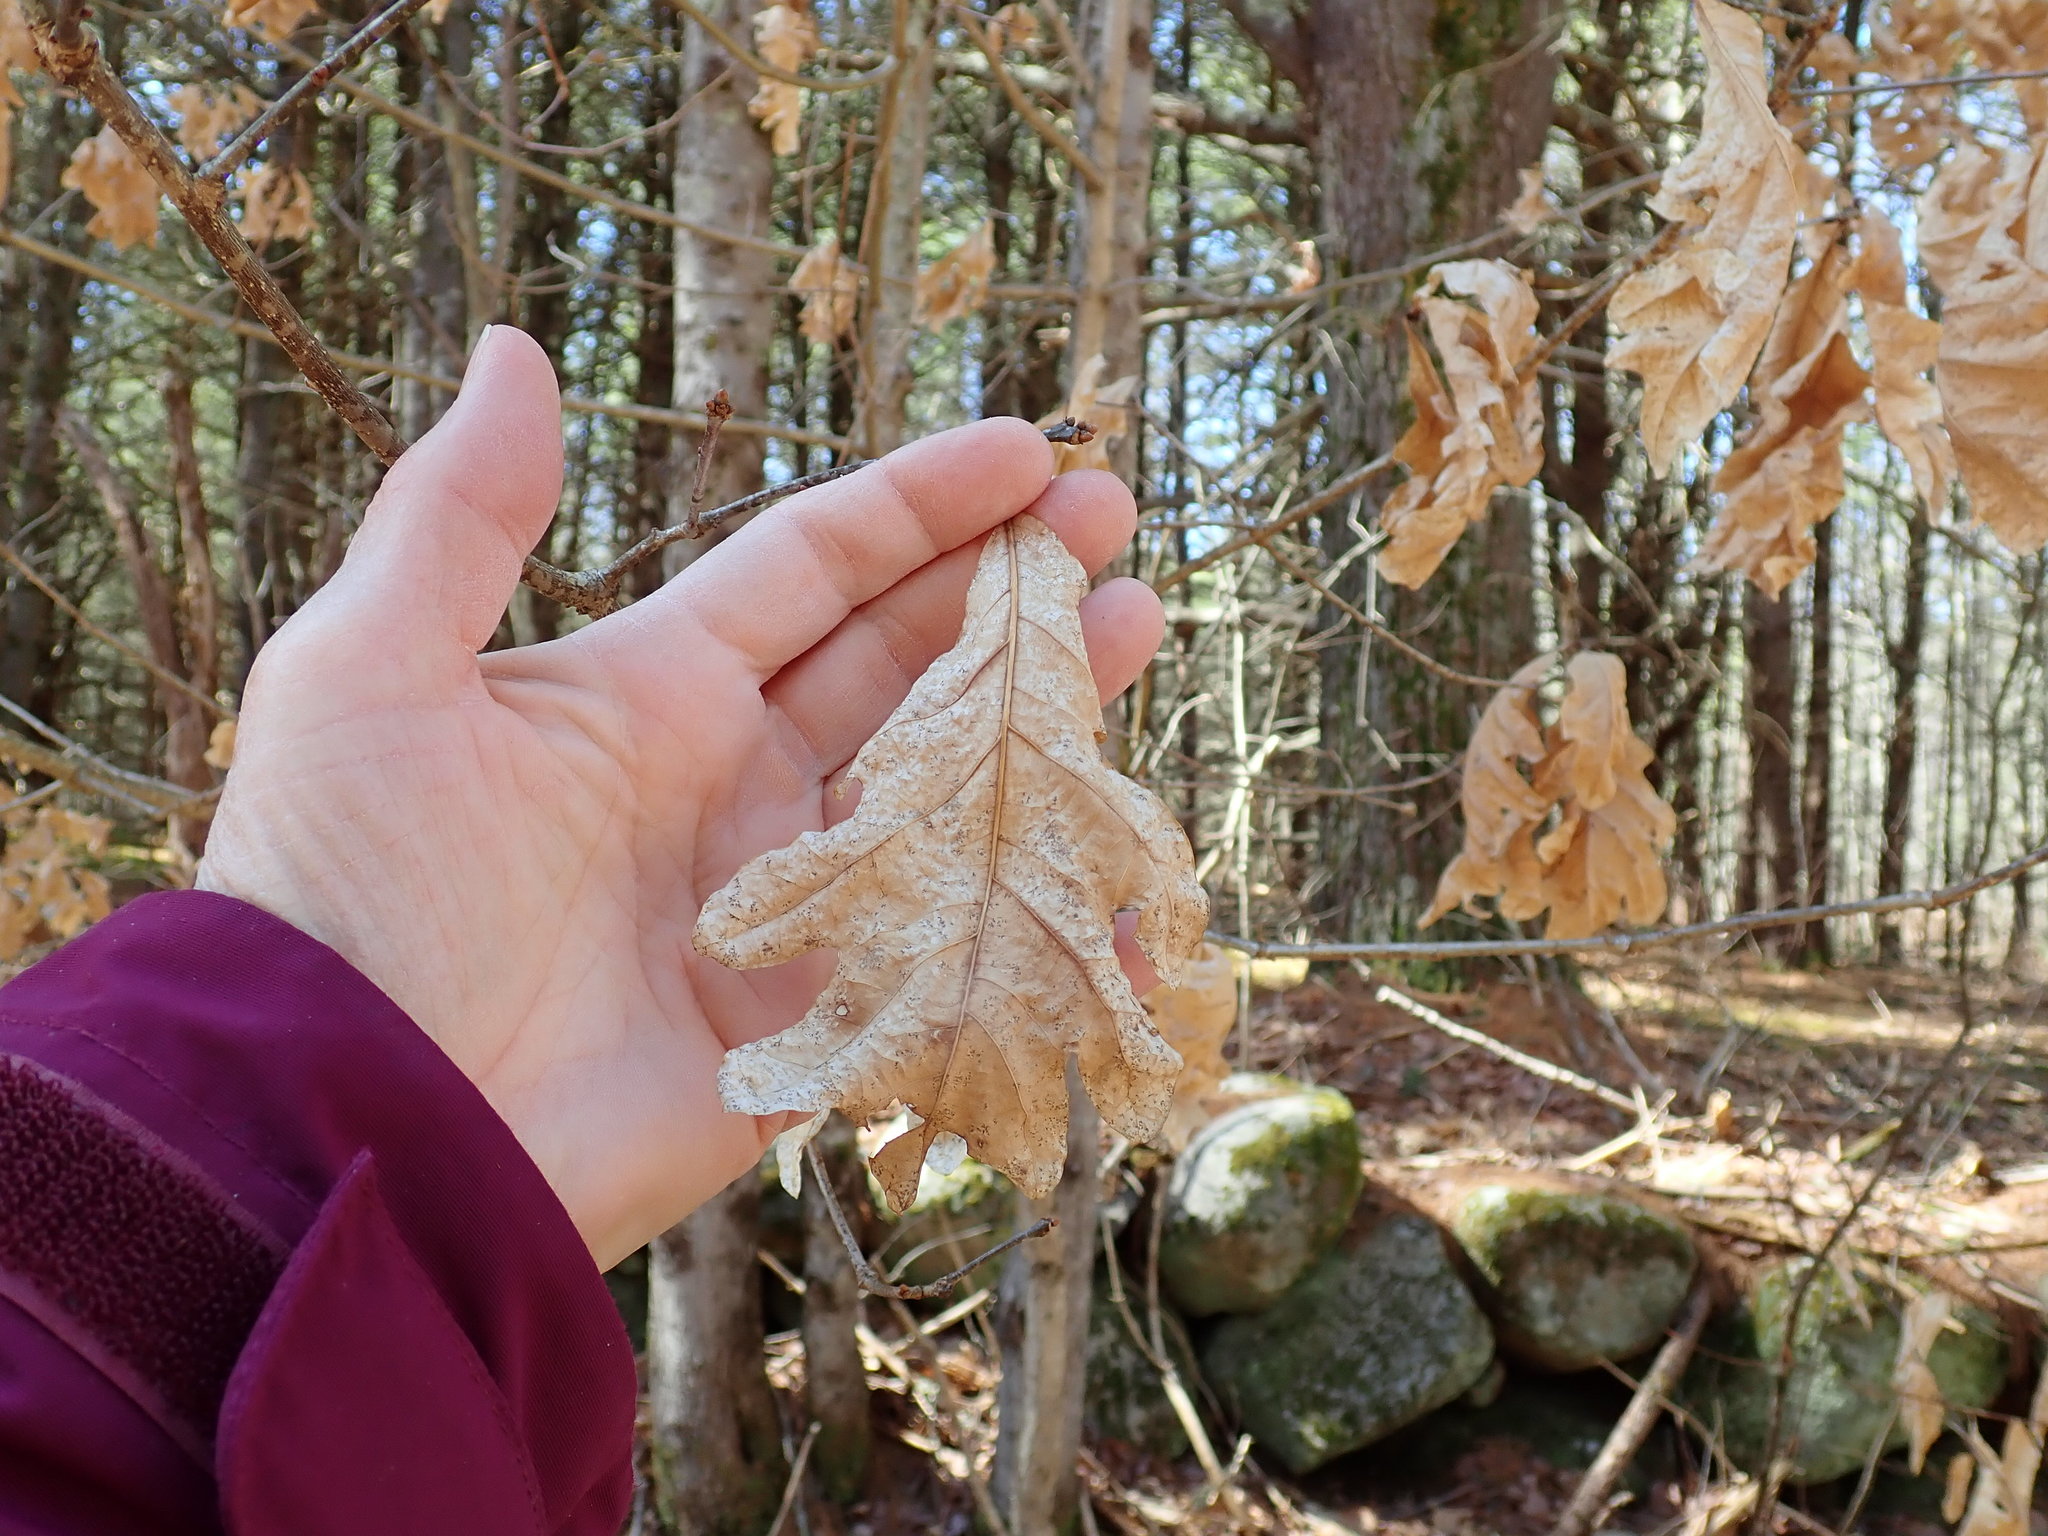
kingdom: Plantae
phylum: Tracheophyta
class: Magnoliopsida
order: Fagales
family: Fagaceae
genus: Quercus
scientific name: Quercus alba
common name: White oak
